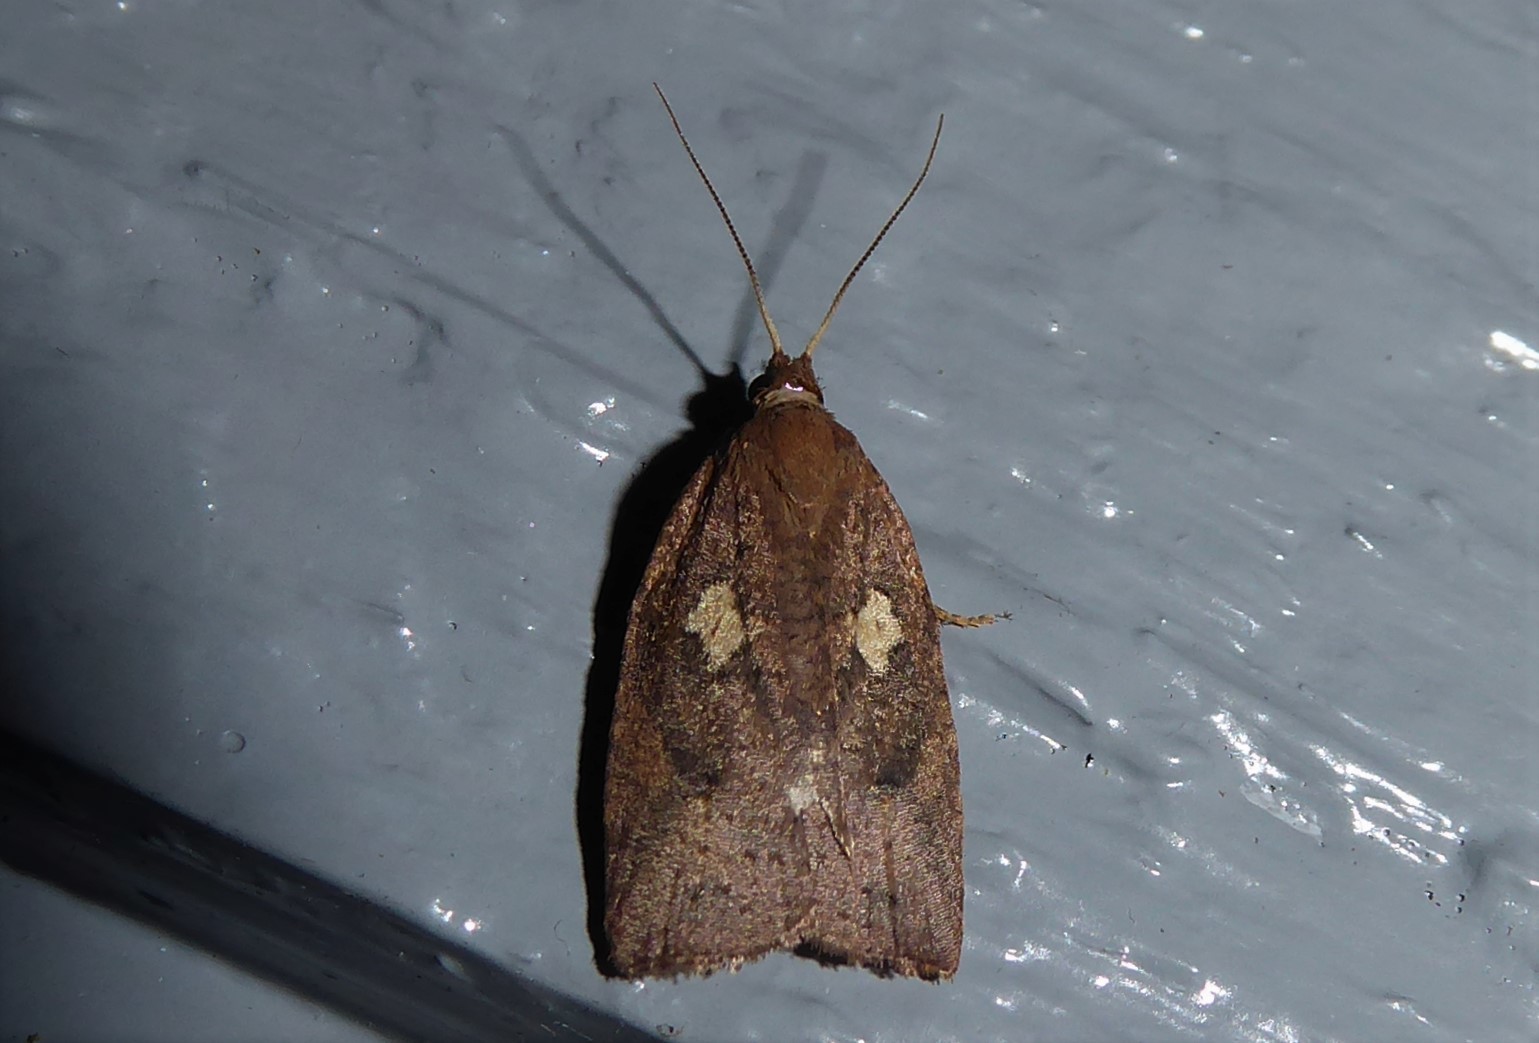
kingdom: Animalia
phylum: Arthropoda
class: Insecta
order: Lepidoptera
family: Tortricidae
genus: Planotortrix
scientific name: Planotortrix excessana
